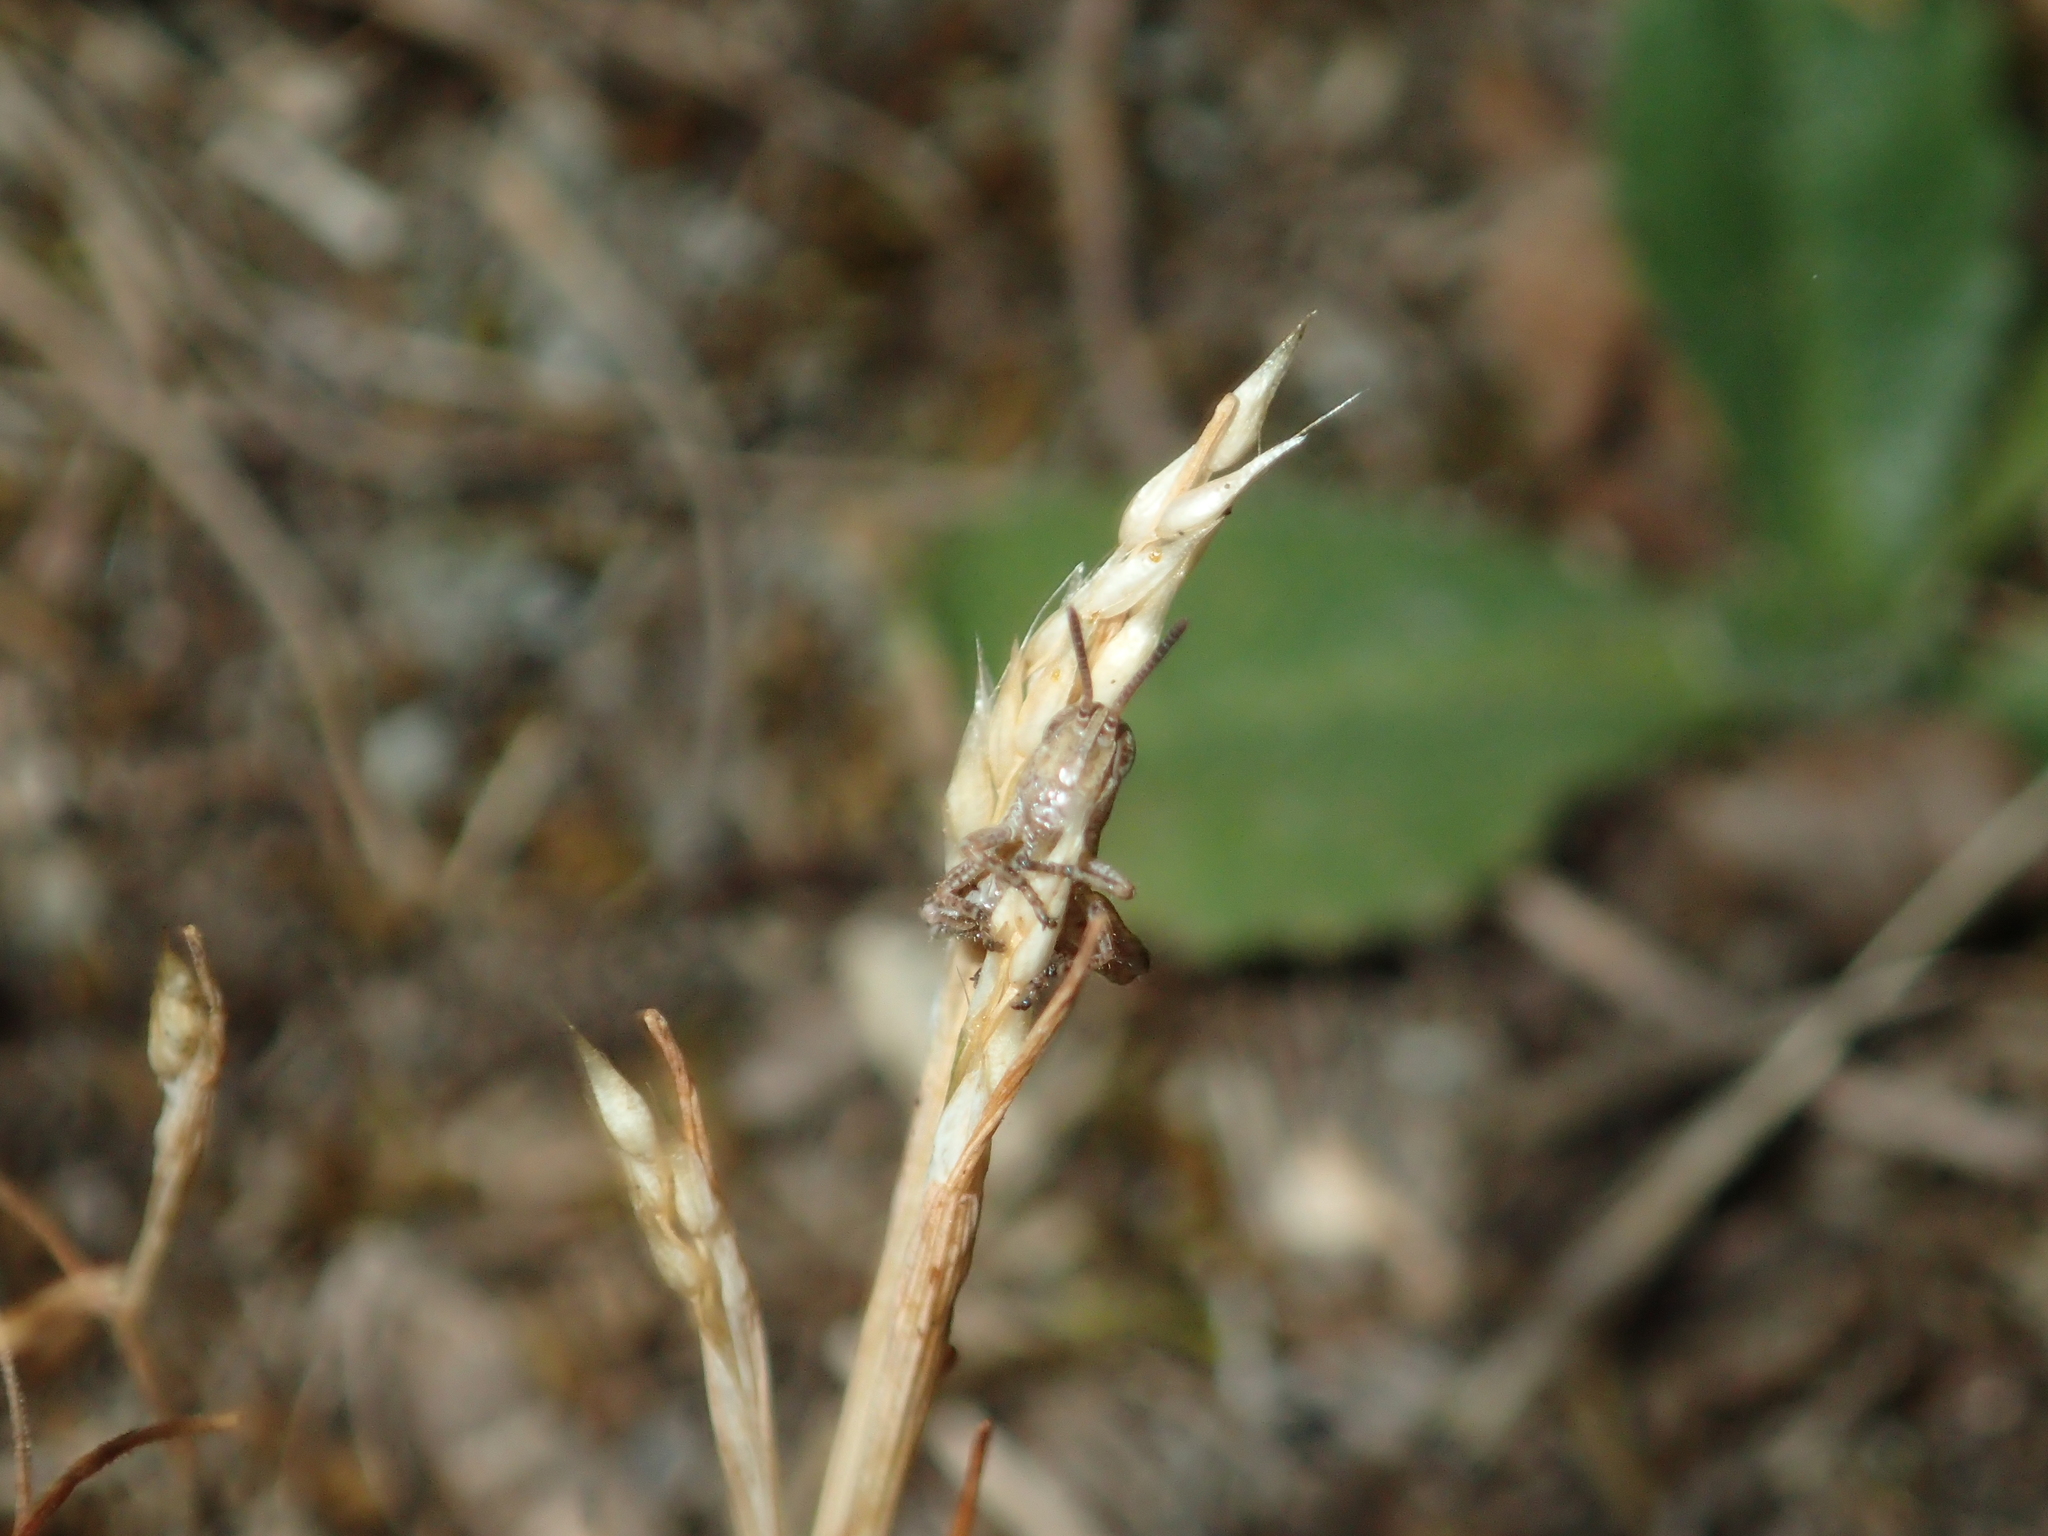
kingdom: Animalia
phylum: Arthropoda
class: Insecta
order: Orthoptera
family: Acrididae
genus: Phaulacridium
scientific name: Phaulacridium marginale
